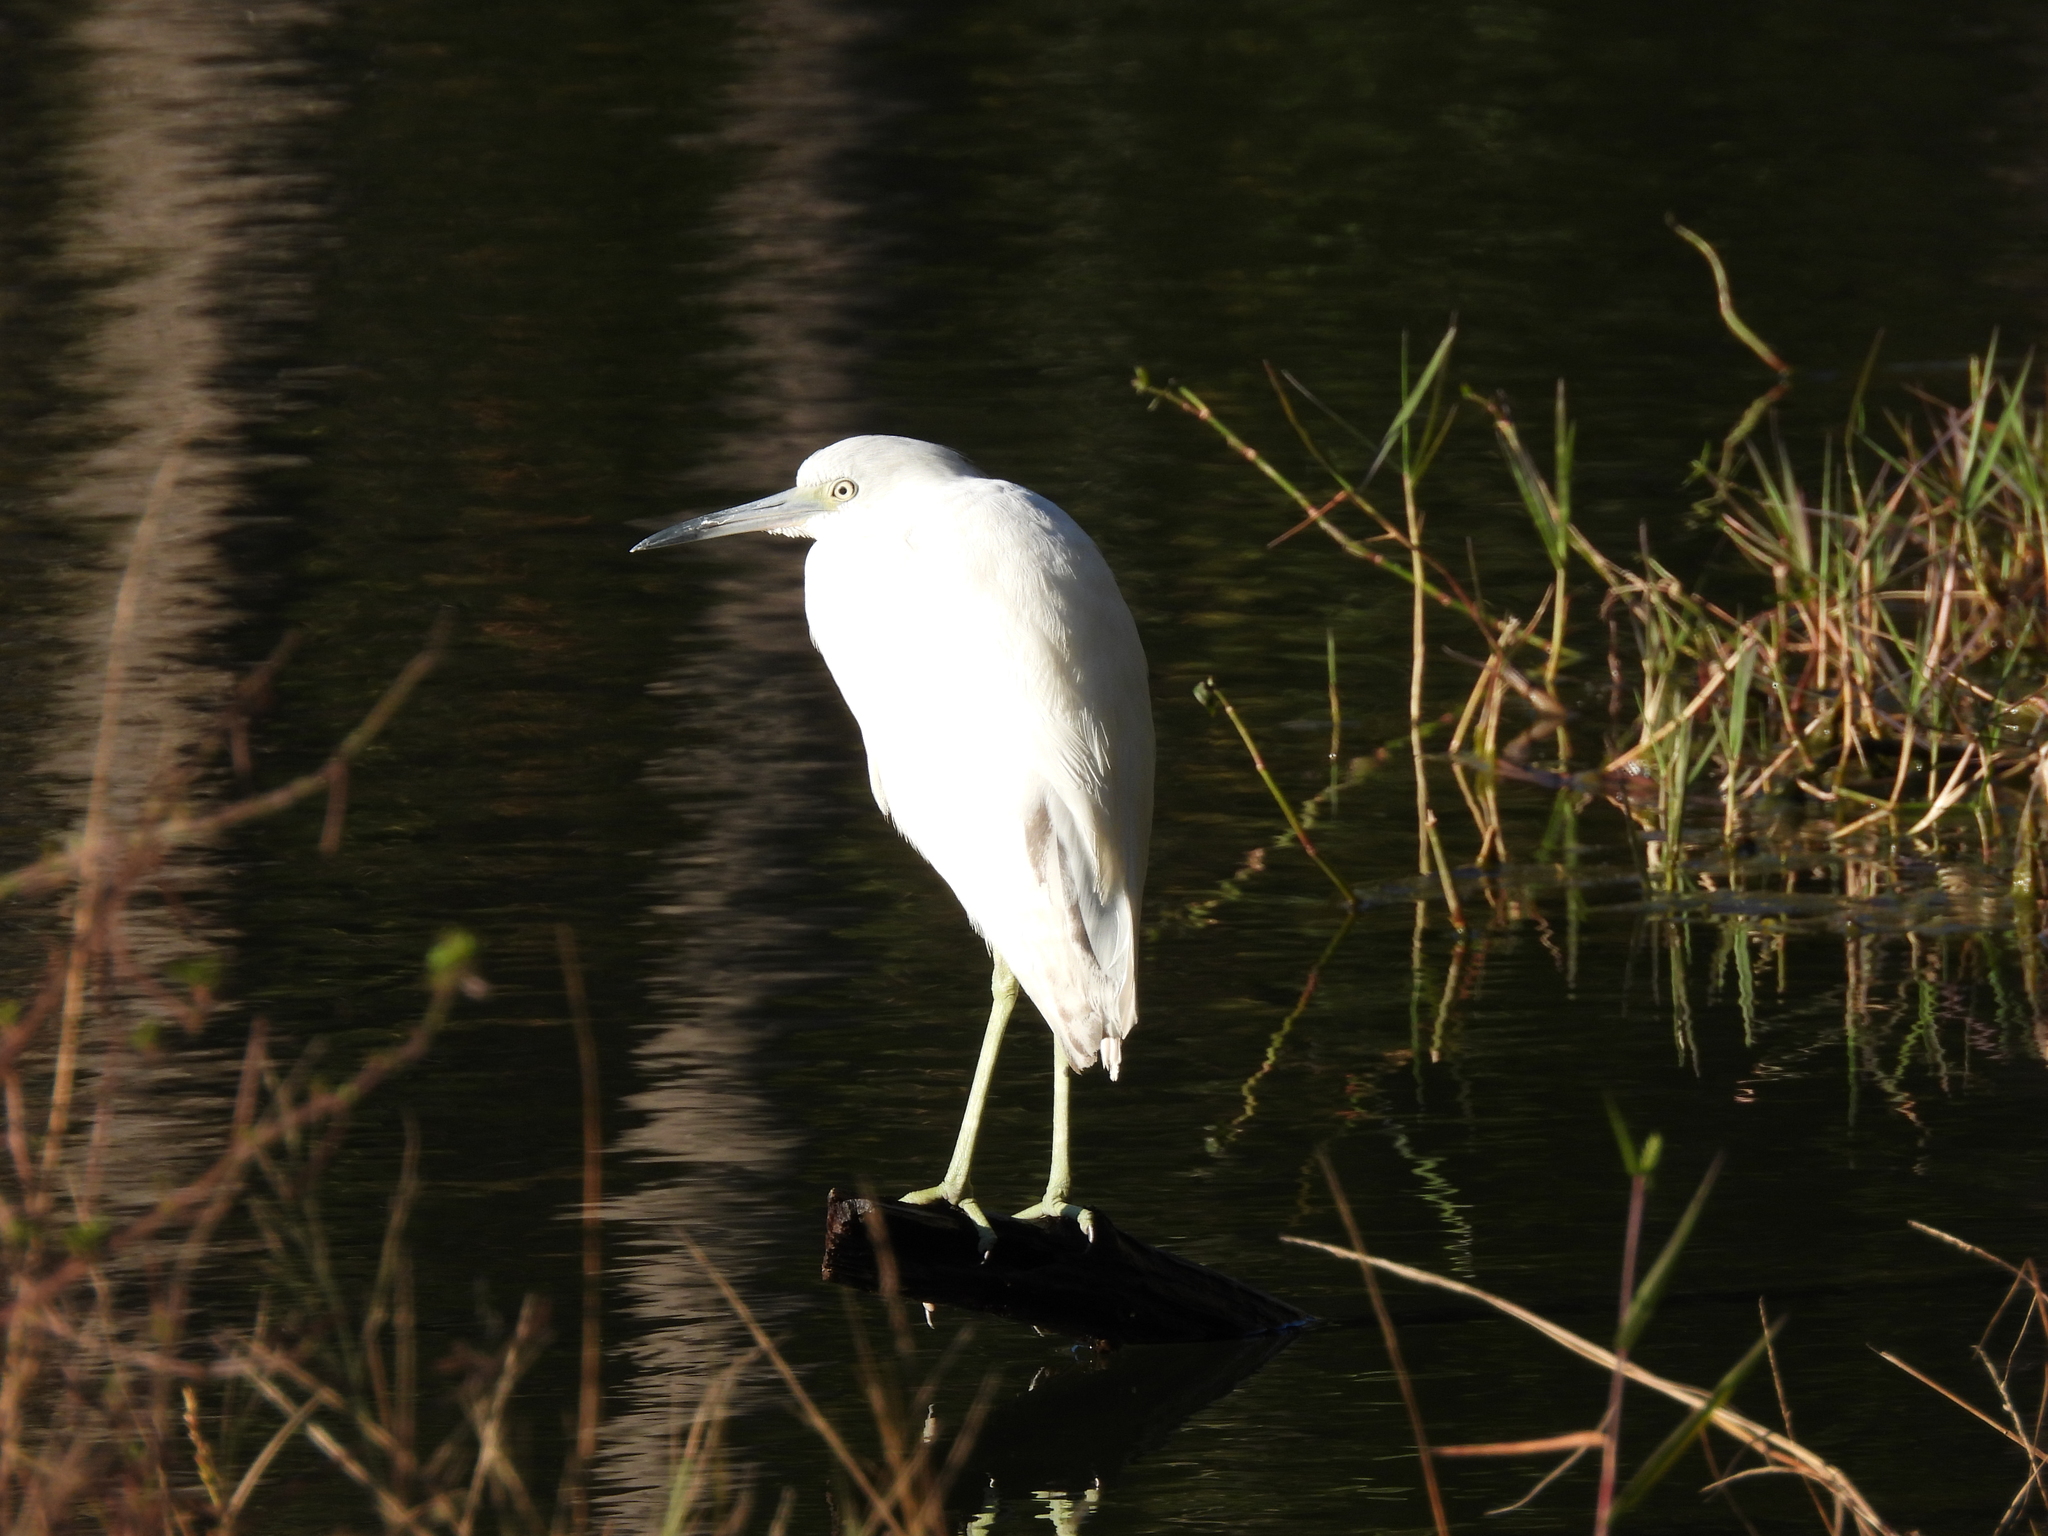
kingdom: Animalia
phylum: Chordata
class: Aves
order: Pelecaniformes
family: Ardeidae
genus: Egretta
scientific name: Egretta caerulea
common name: Little blue heron
